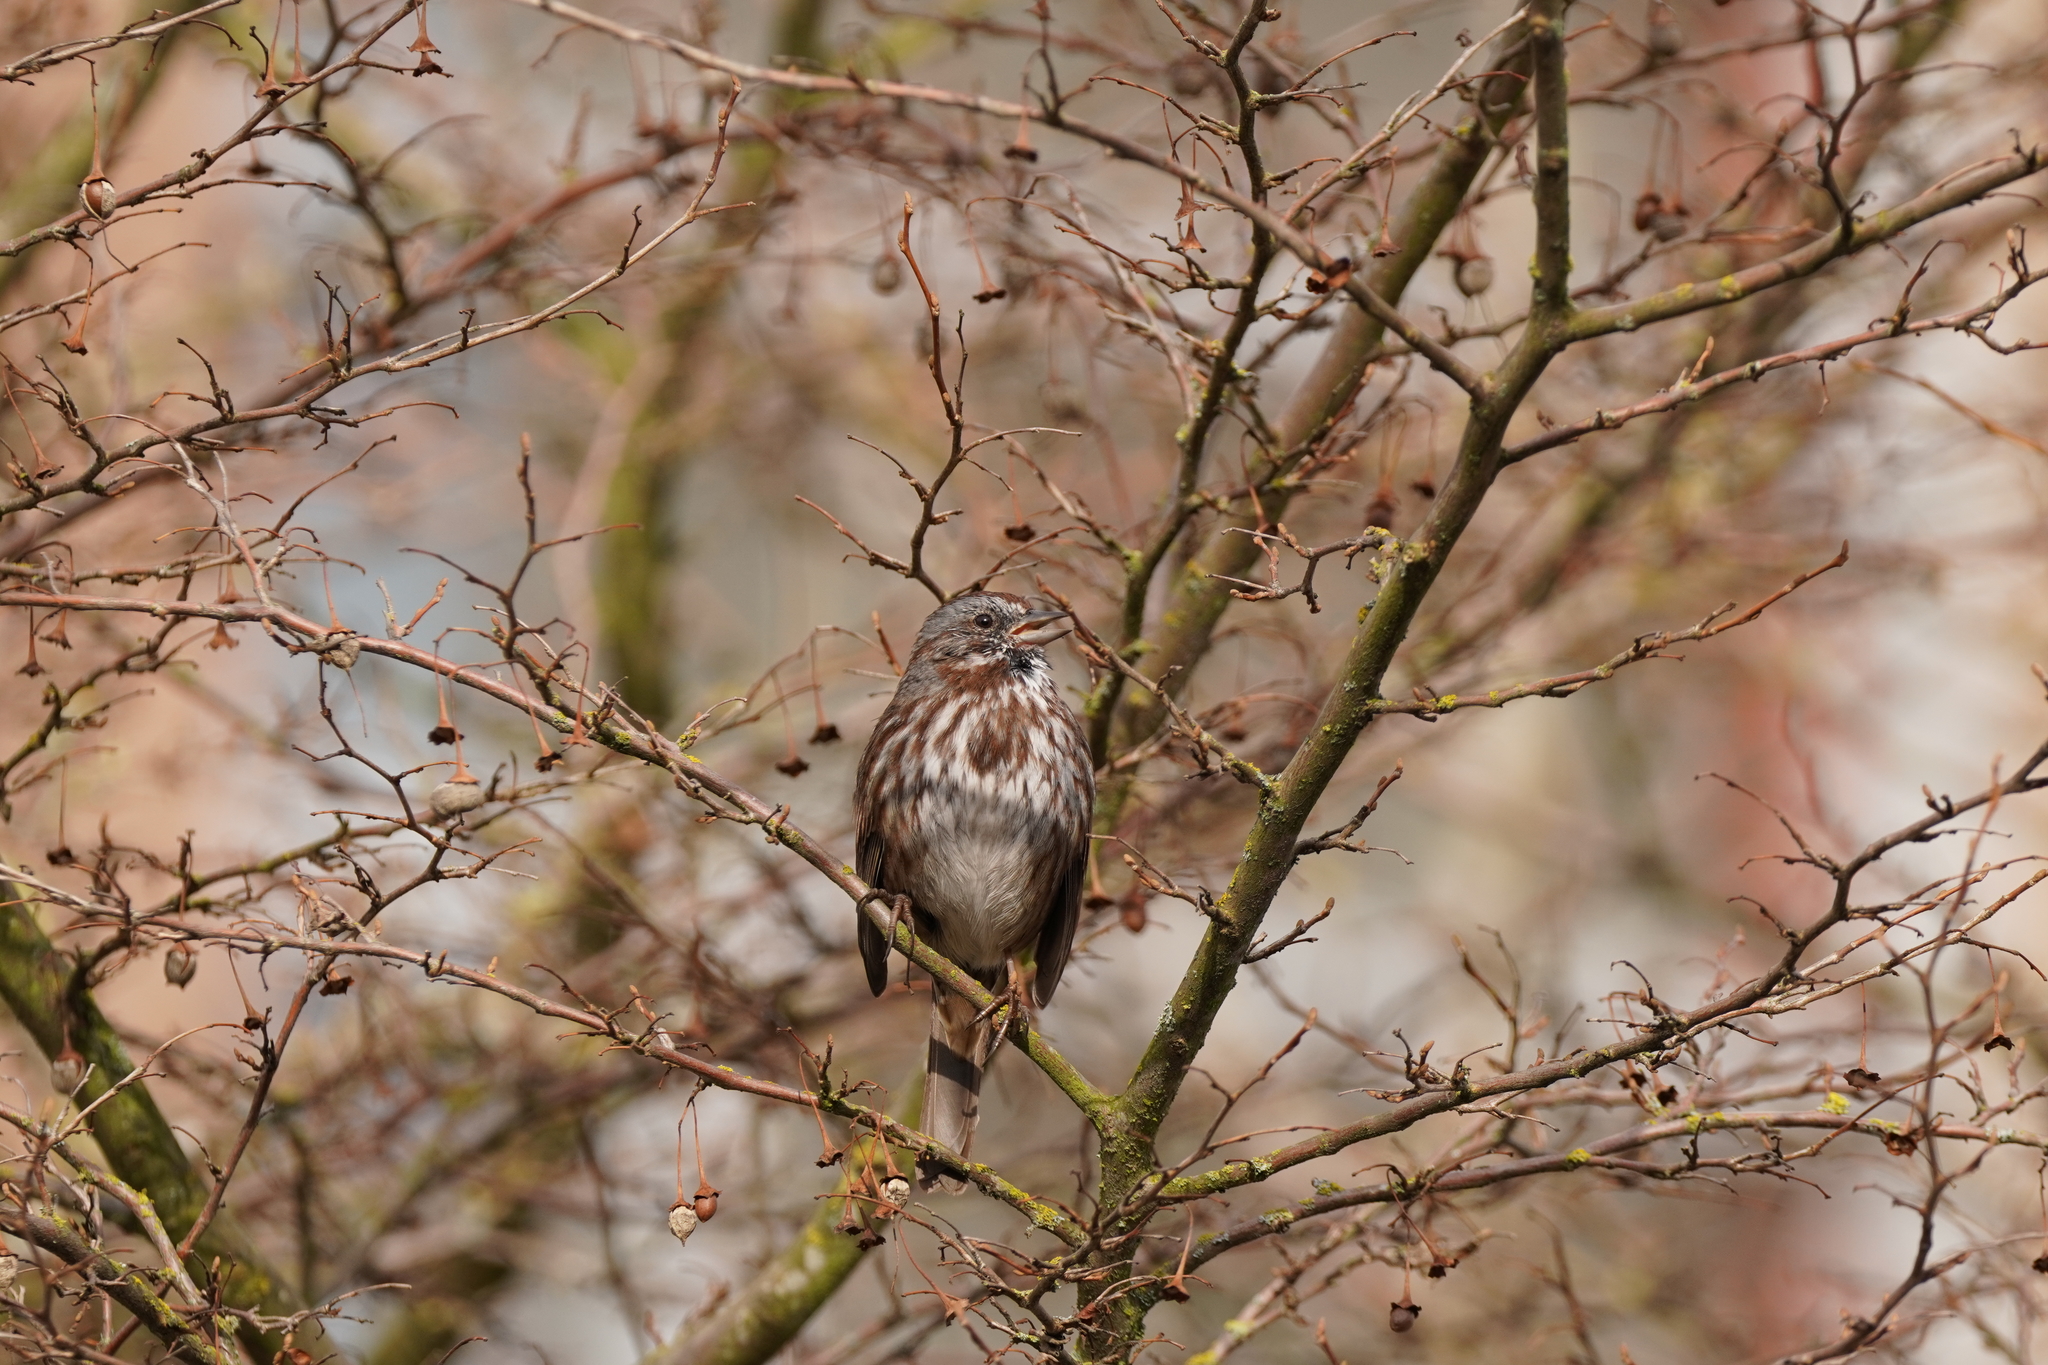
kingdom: Animalia
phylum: Chordata
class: Aves
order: Passeriformes
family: Passerellidae
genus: Melospiza
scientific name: Melospiza melodia
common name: Song sparrow
